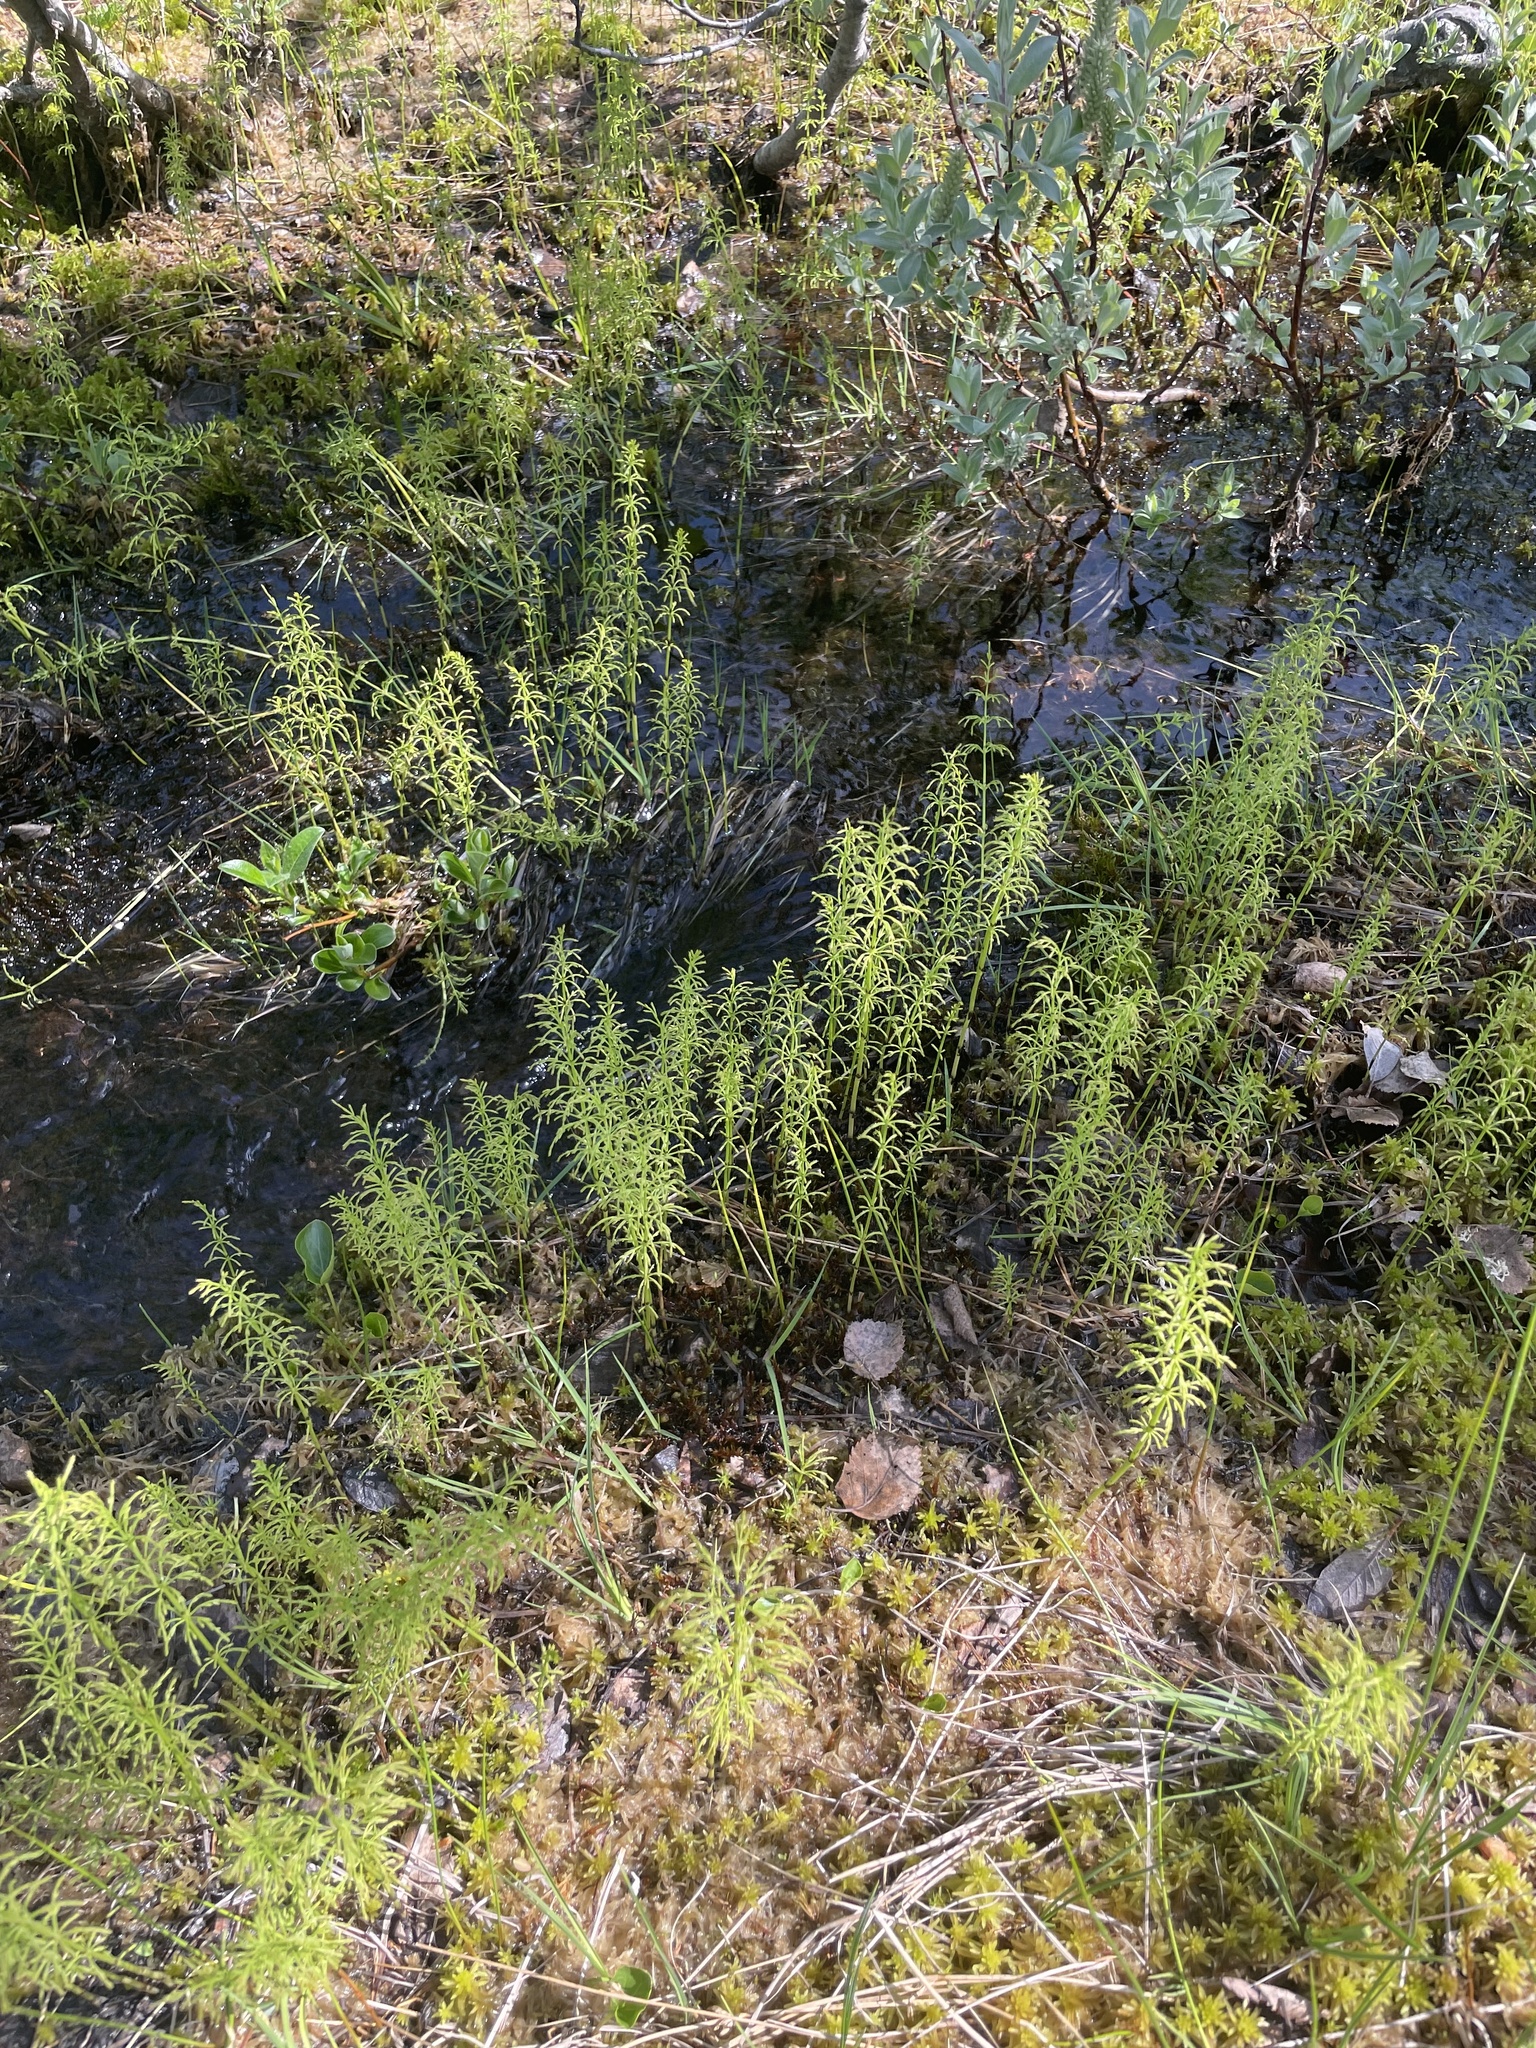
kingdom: Plantae
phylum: Tracheophyta
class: Polypodiopsida
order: Equisetales
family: Equisetaceae
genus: Equisetum
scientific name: Equisetum sylvaticum
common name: Wood horsetail
